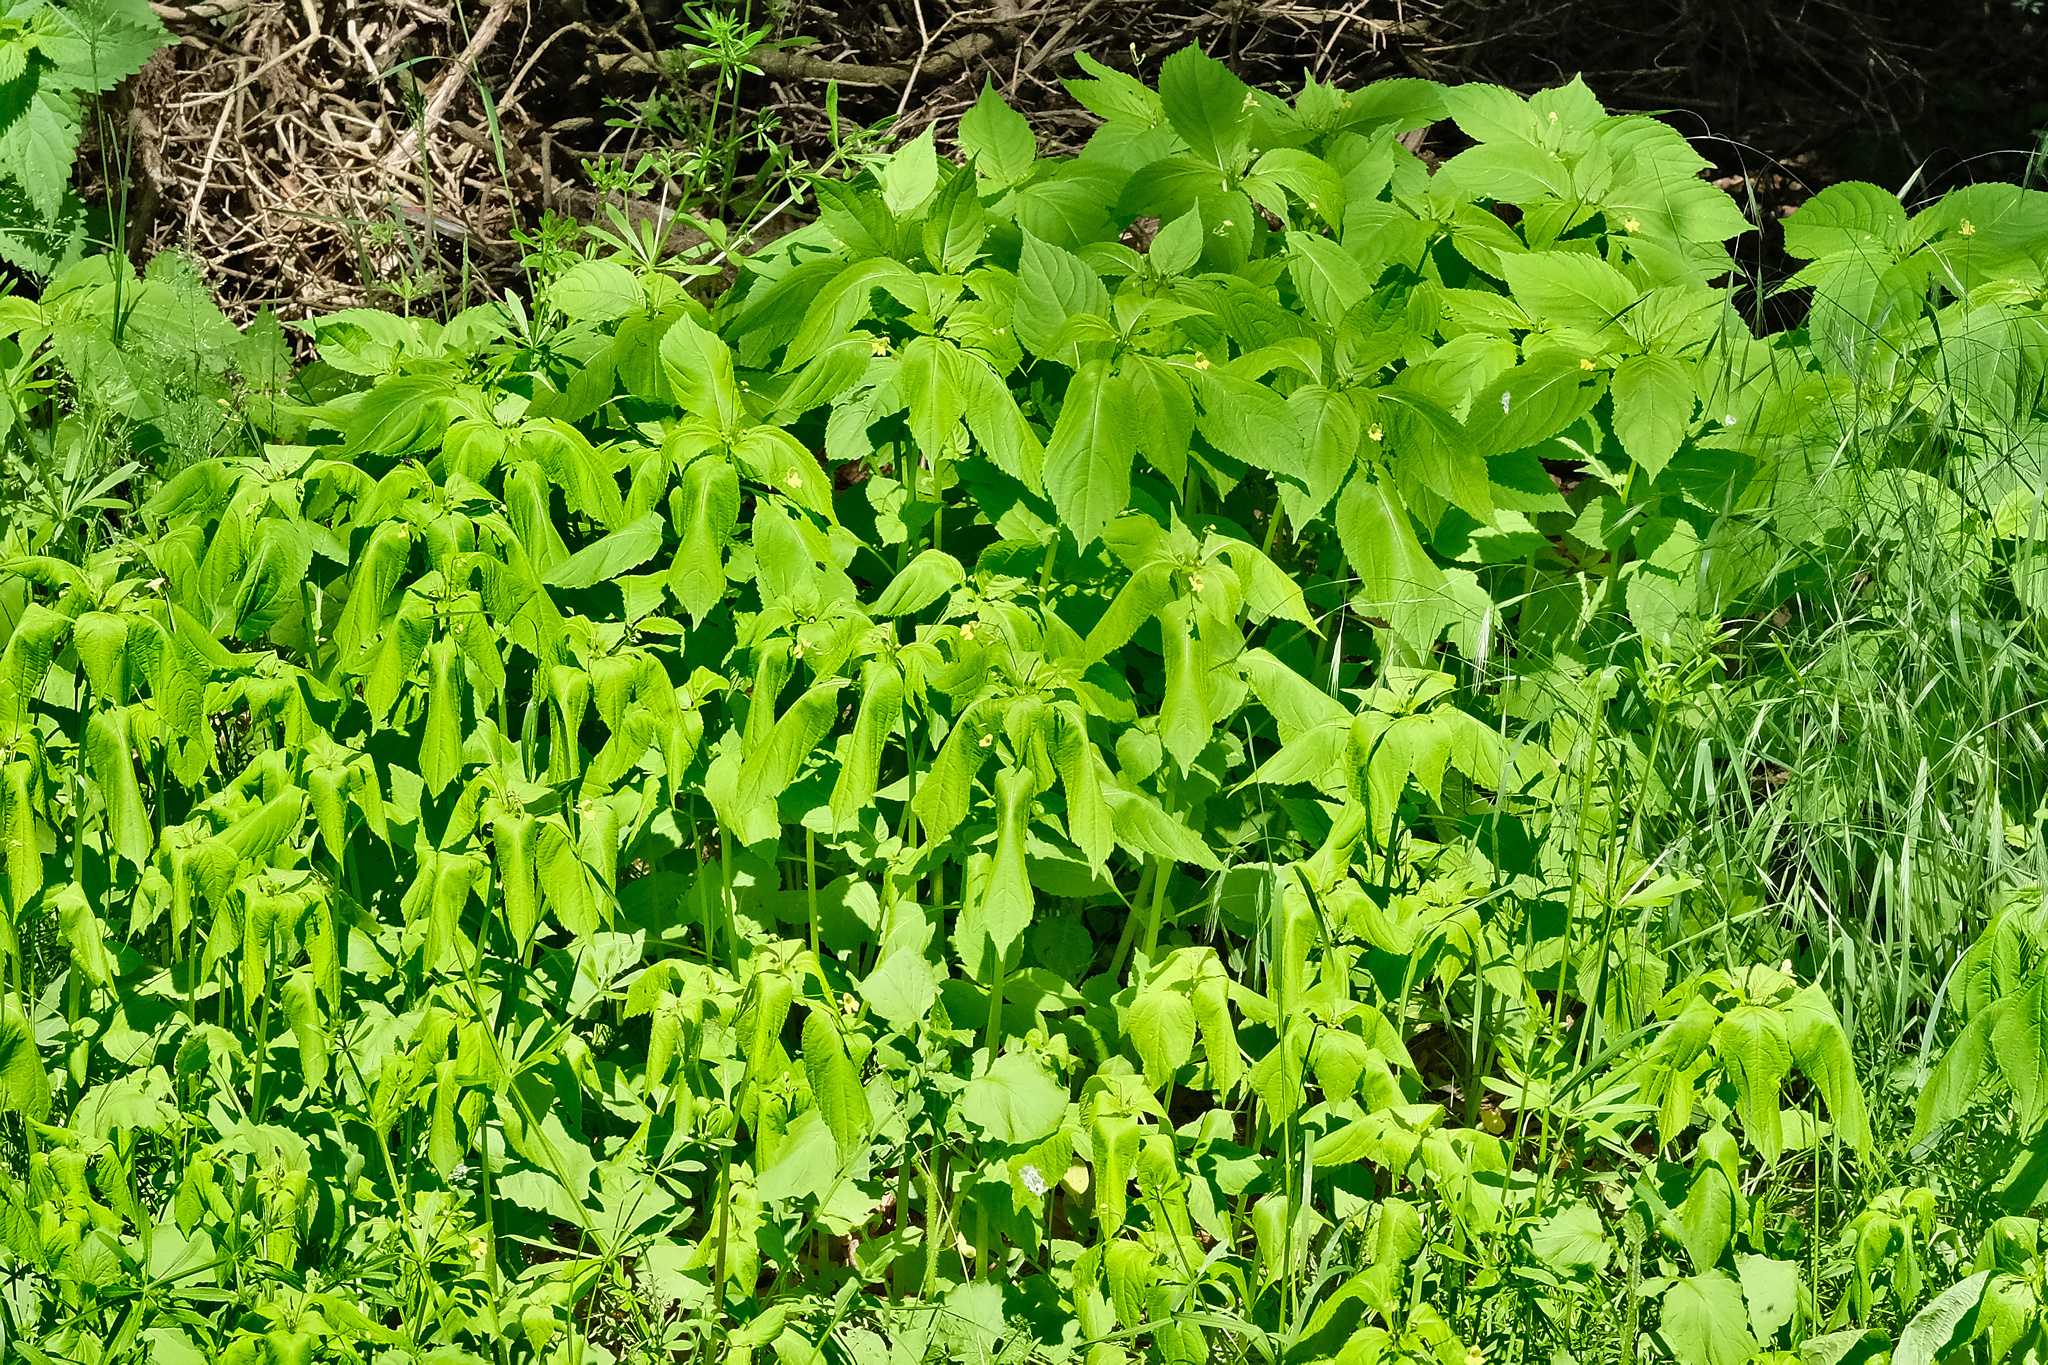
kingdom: Plantae
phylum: Tracheophyta
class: Magnoliopsida
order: Ericales
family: Balsaminaceae
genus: Impatiens
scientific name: Impatiens parviflora
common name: Small balsam
